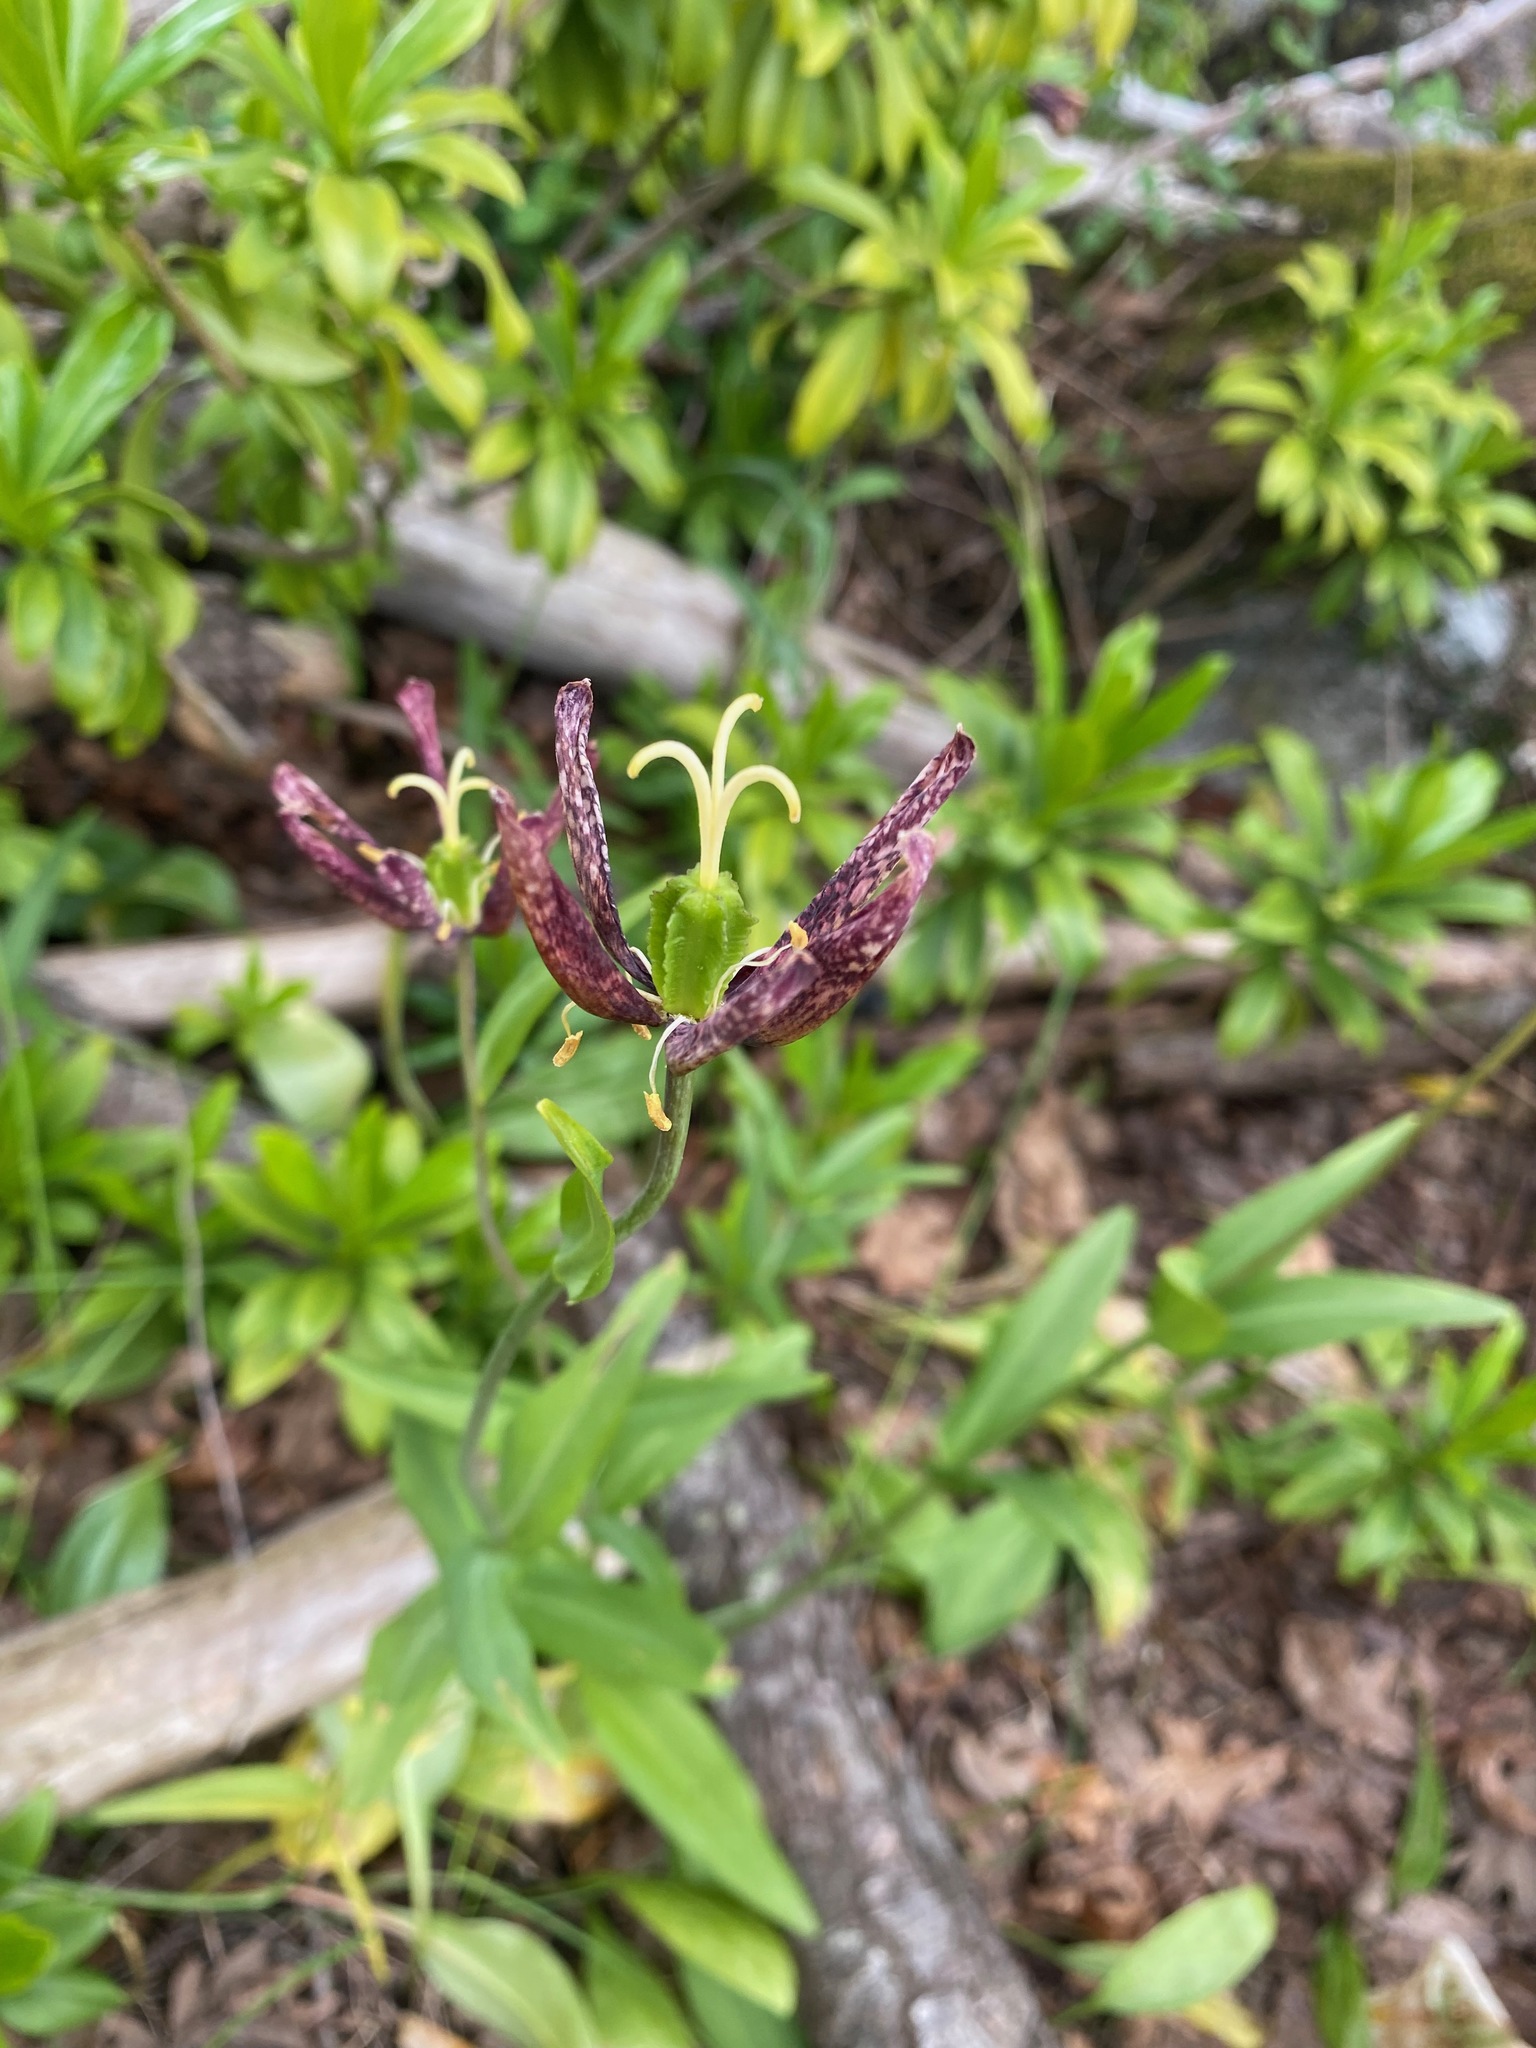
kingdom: Plantae
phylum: Tracheophyta
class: Liliopsida
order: Liliales
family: Liliaceae
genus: Fritillaria
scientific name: Fritillaria affinis
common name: Ojai fritillary
